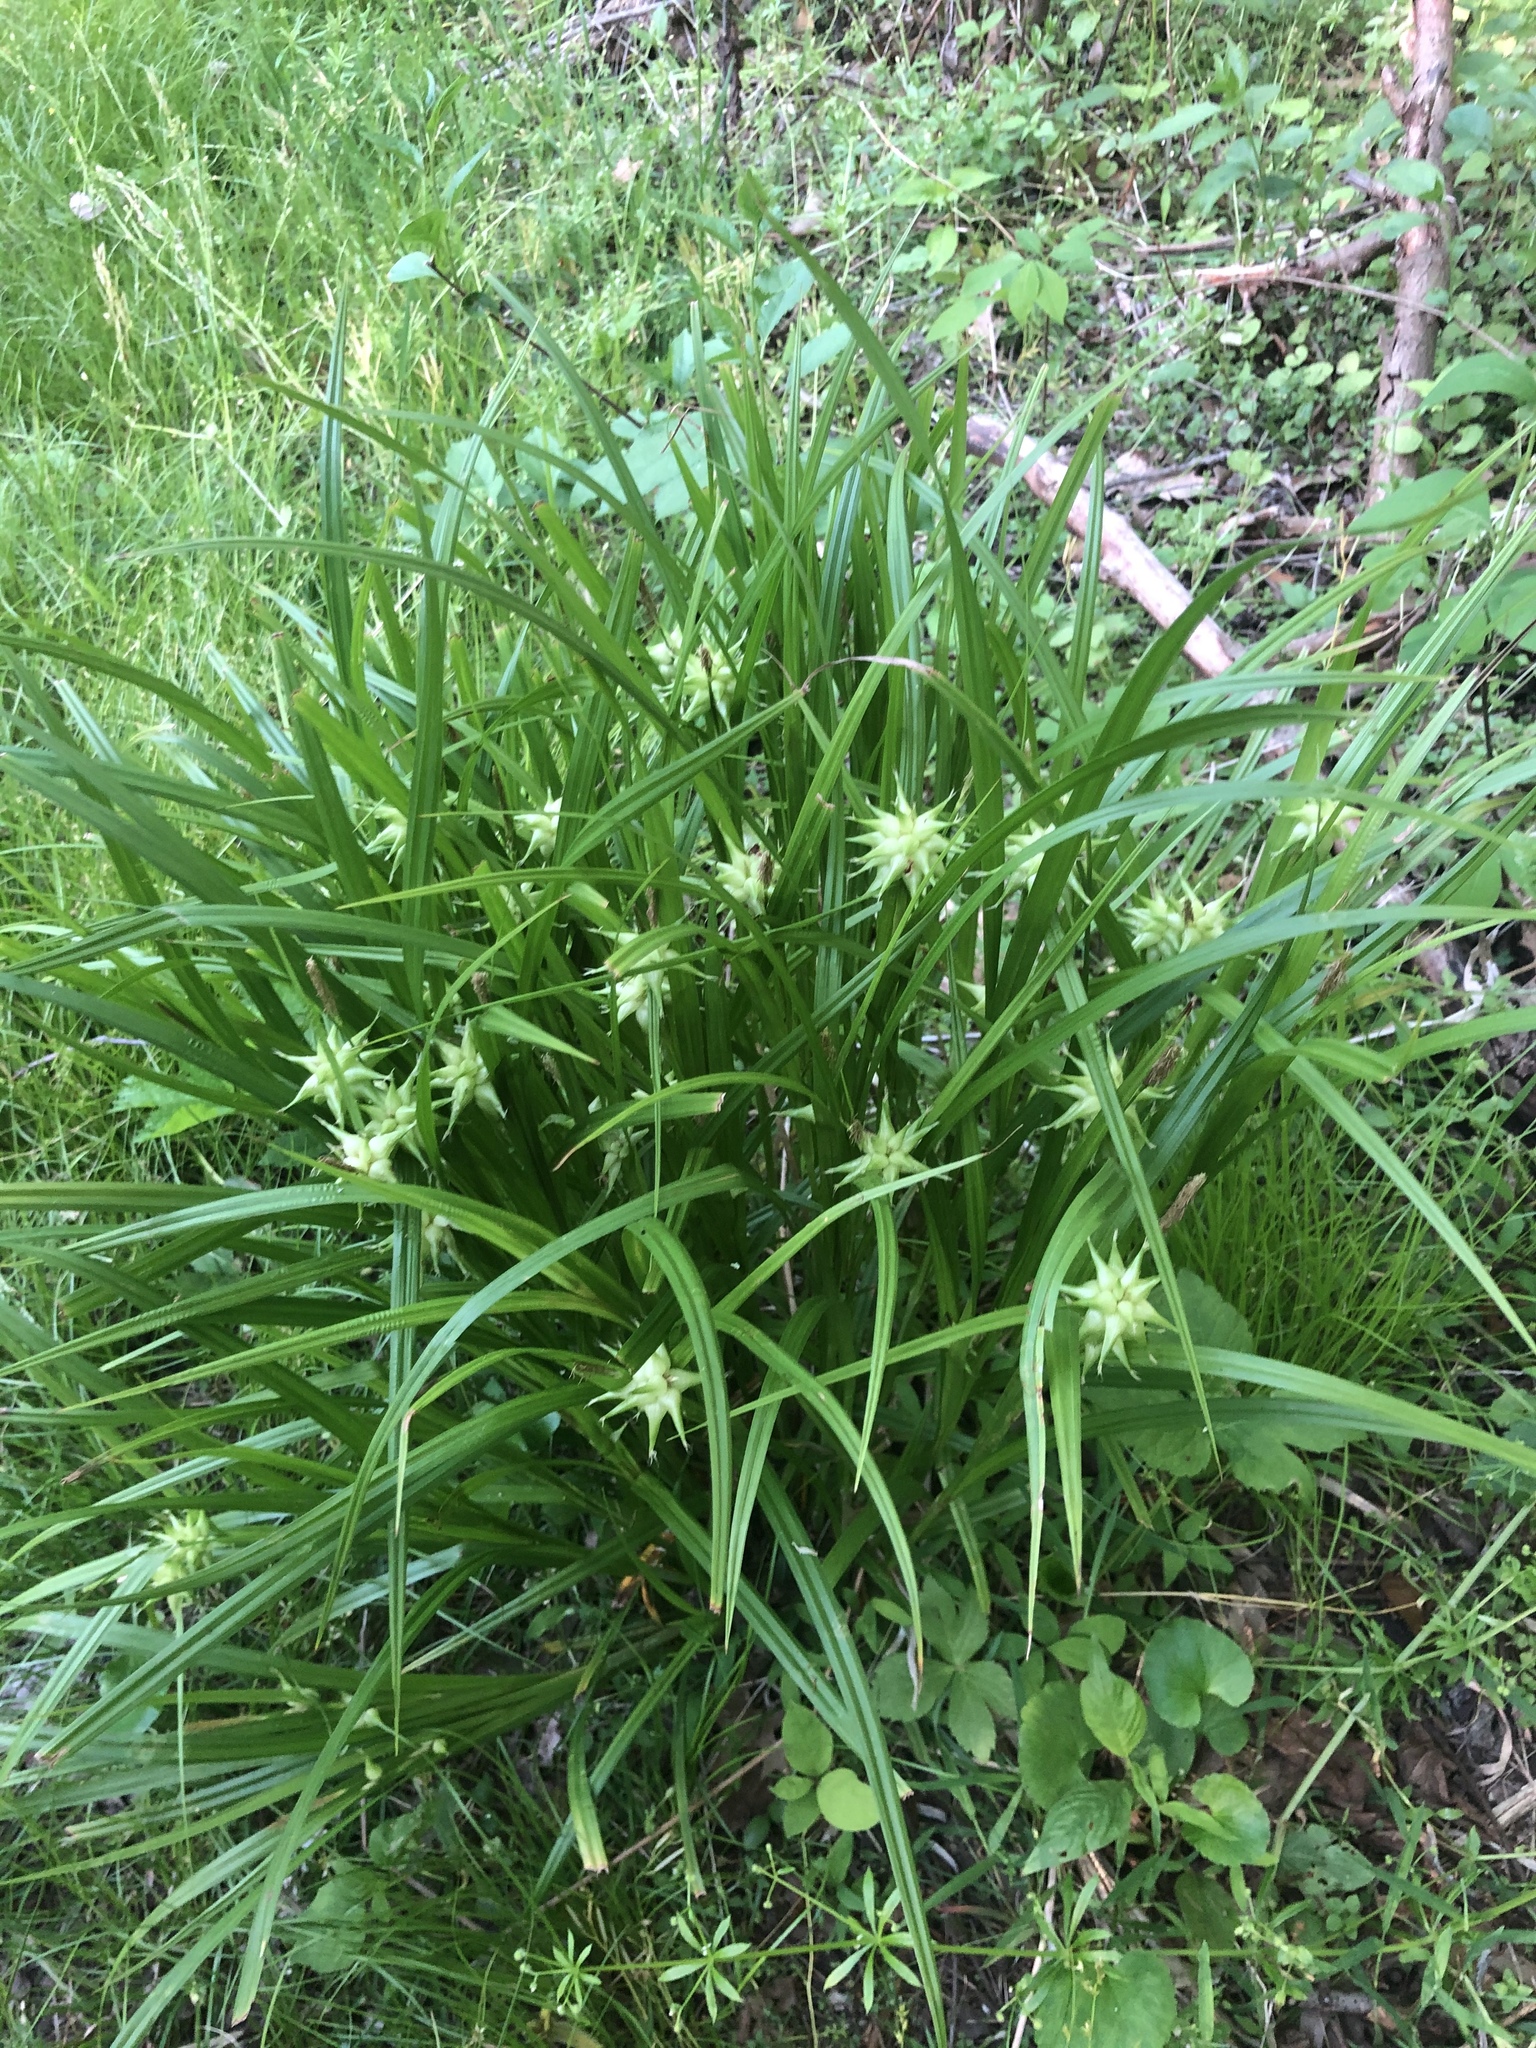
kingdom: Plantae
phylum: Tracheophyta
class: Liliopsida
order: Poales
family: Cyperaceae
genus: Carex
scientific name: Carex grayi
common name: Asa gray's sedge
